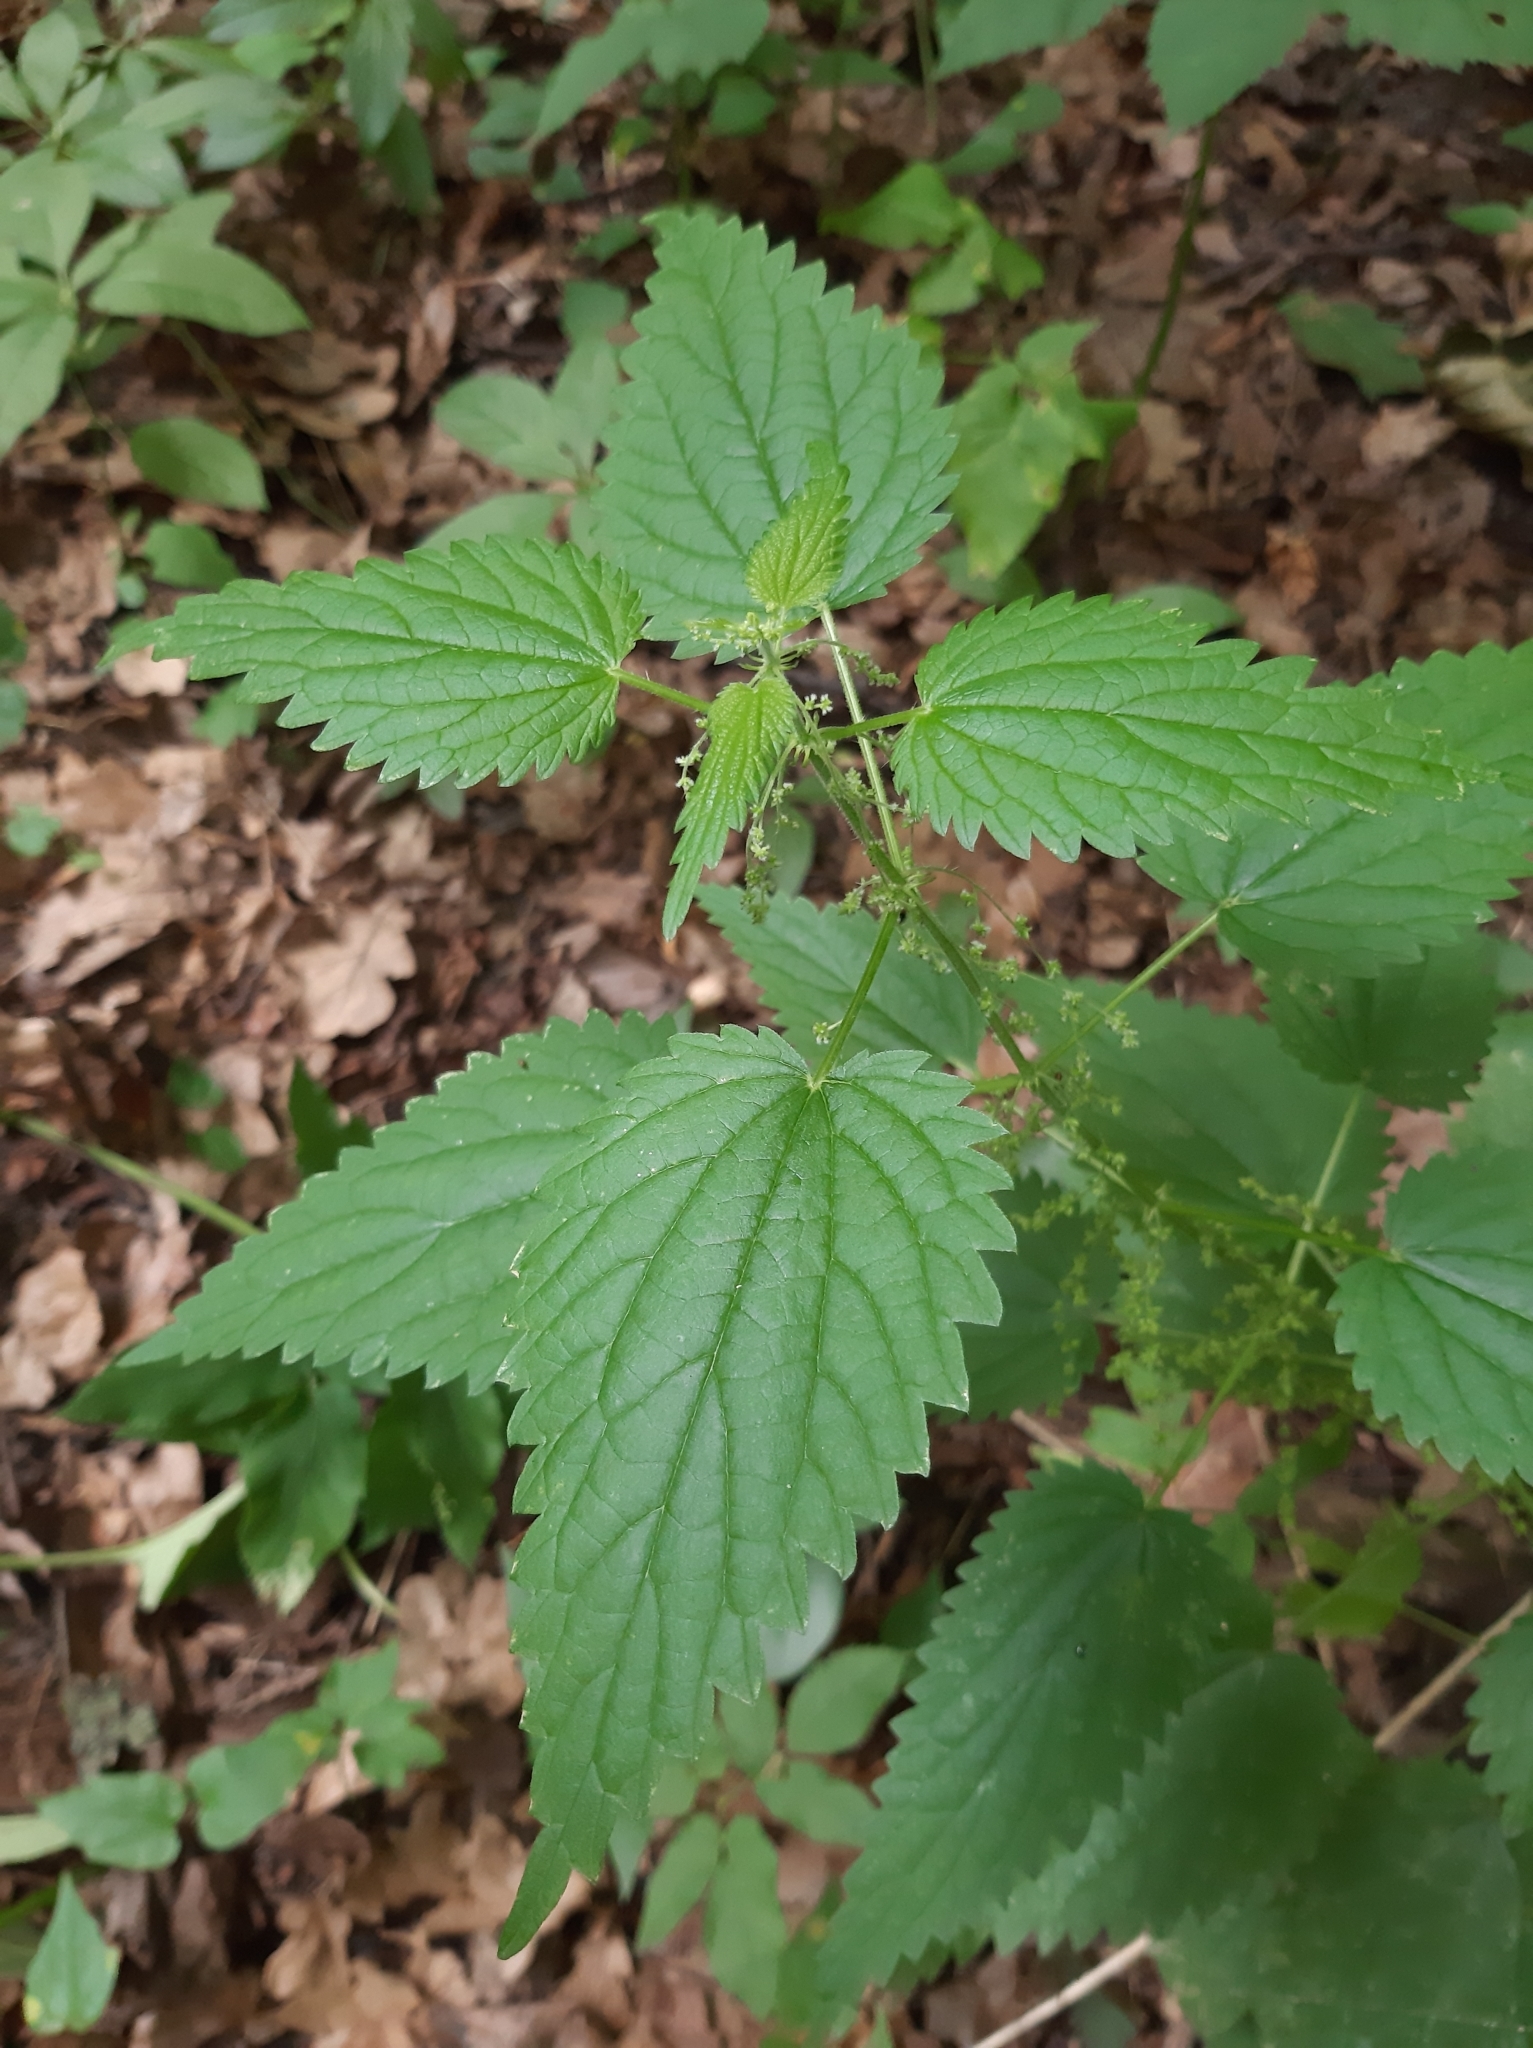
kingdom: Plantae
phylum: Tracheophyta
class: Magnoliopsida
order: Rosales
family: Urticaceae
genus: Urtica
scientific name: Urtica dioica
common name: Common nettle
